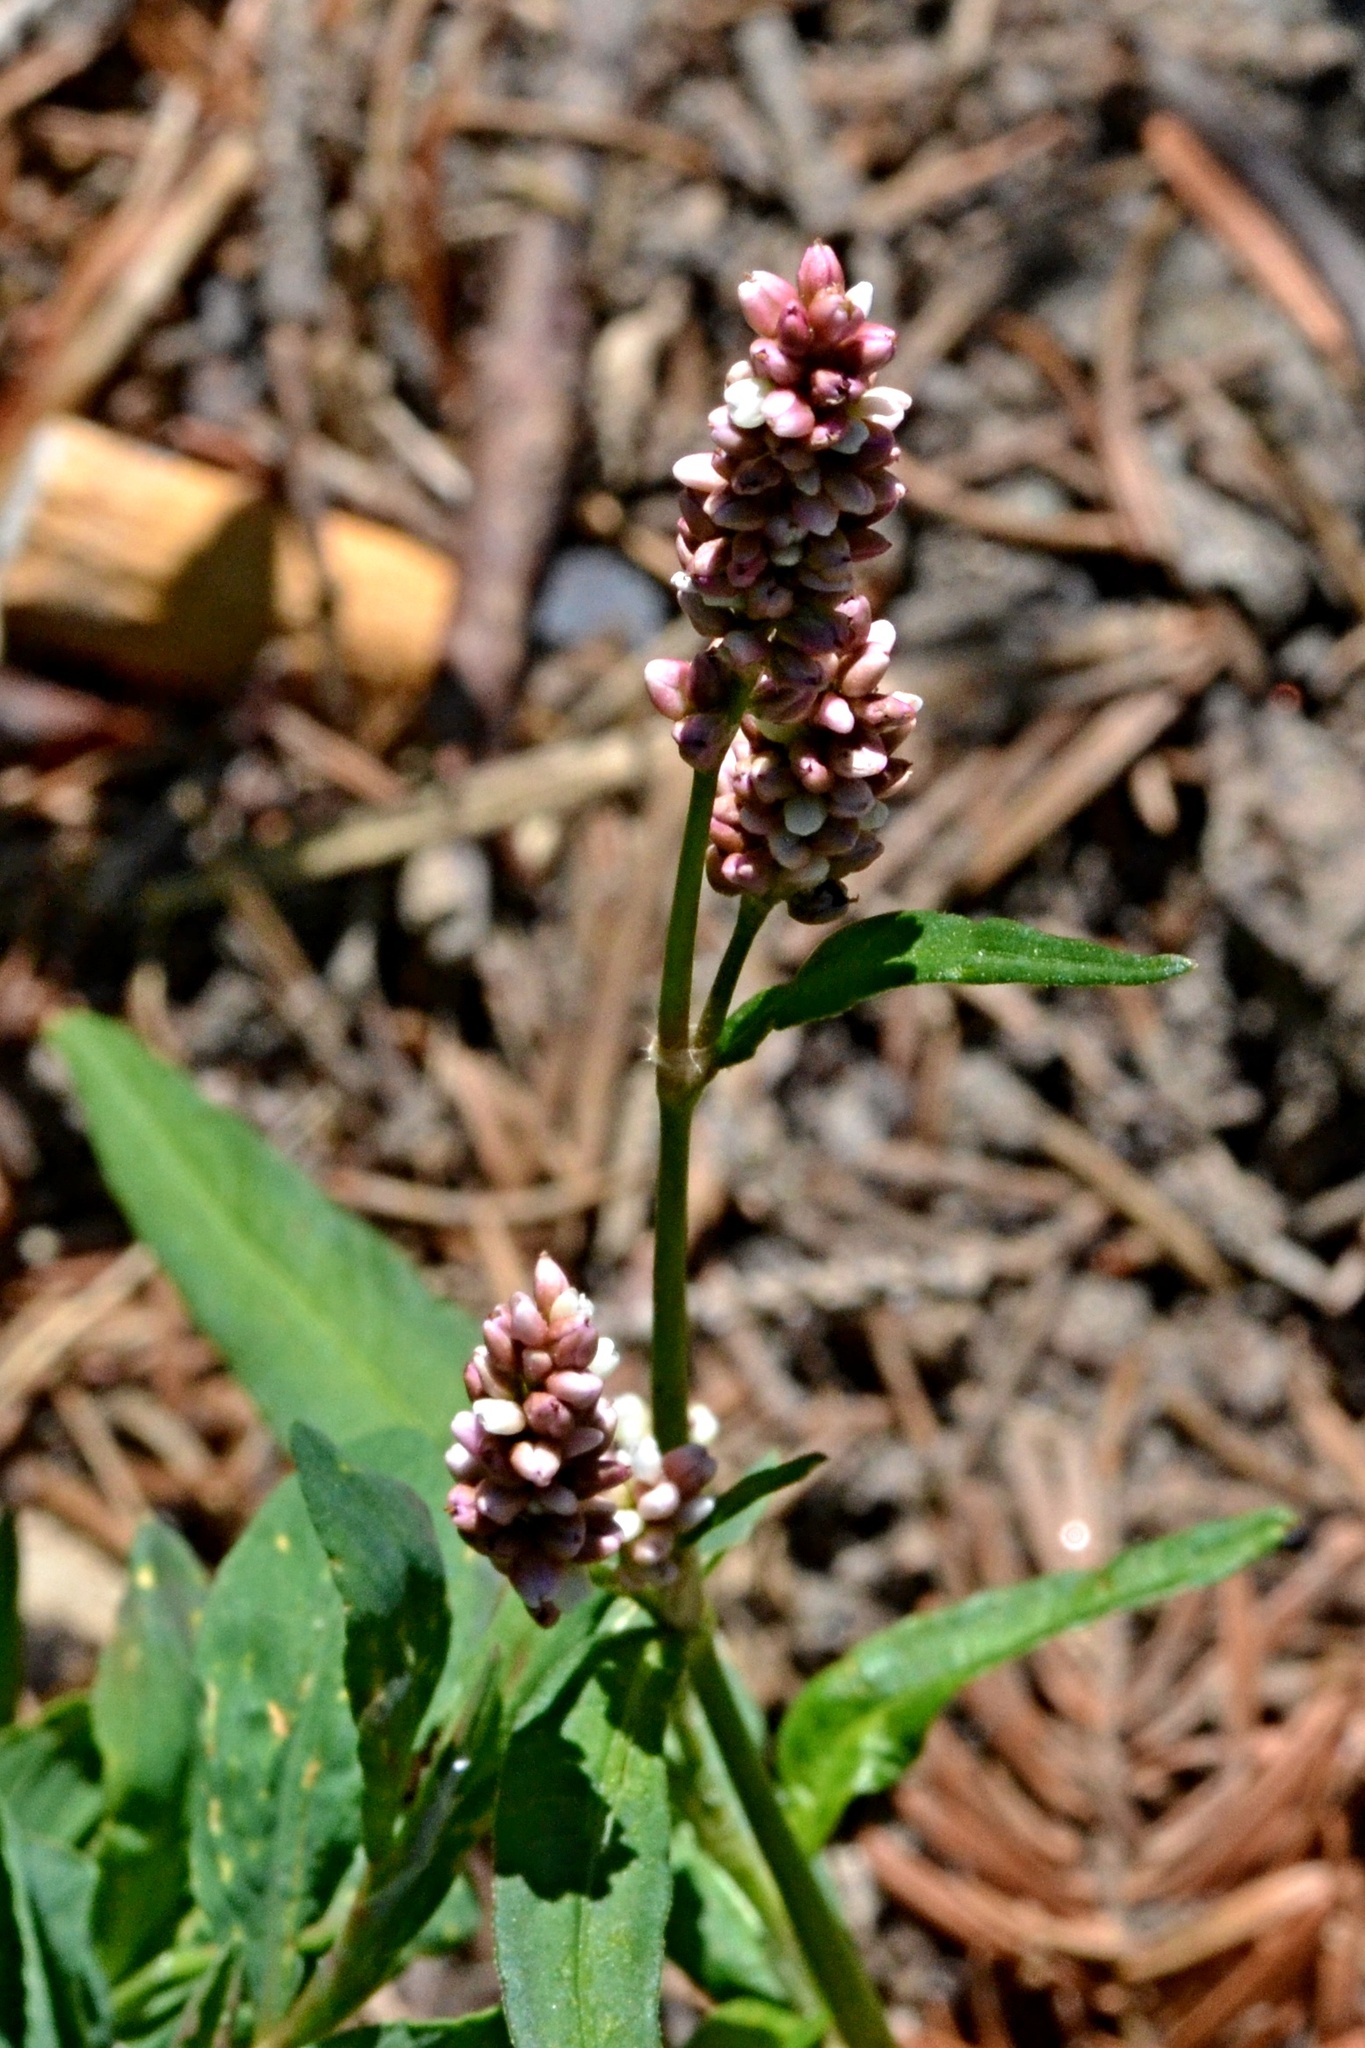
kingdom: Plantae
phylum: Tracheophyta
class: Magnoliopsida
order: Caryophyllales
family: Polygonaceae
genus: Persicaria
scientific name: Persicaria maculosa
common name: Redshank
